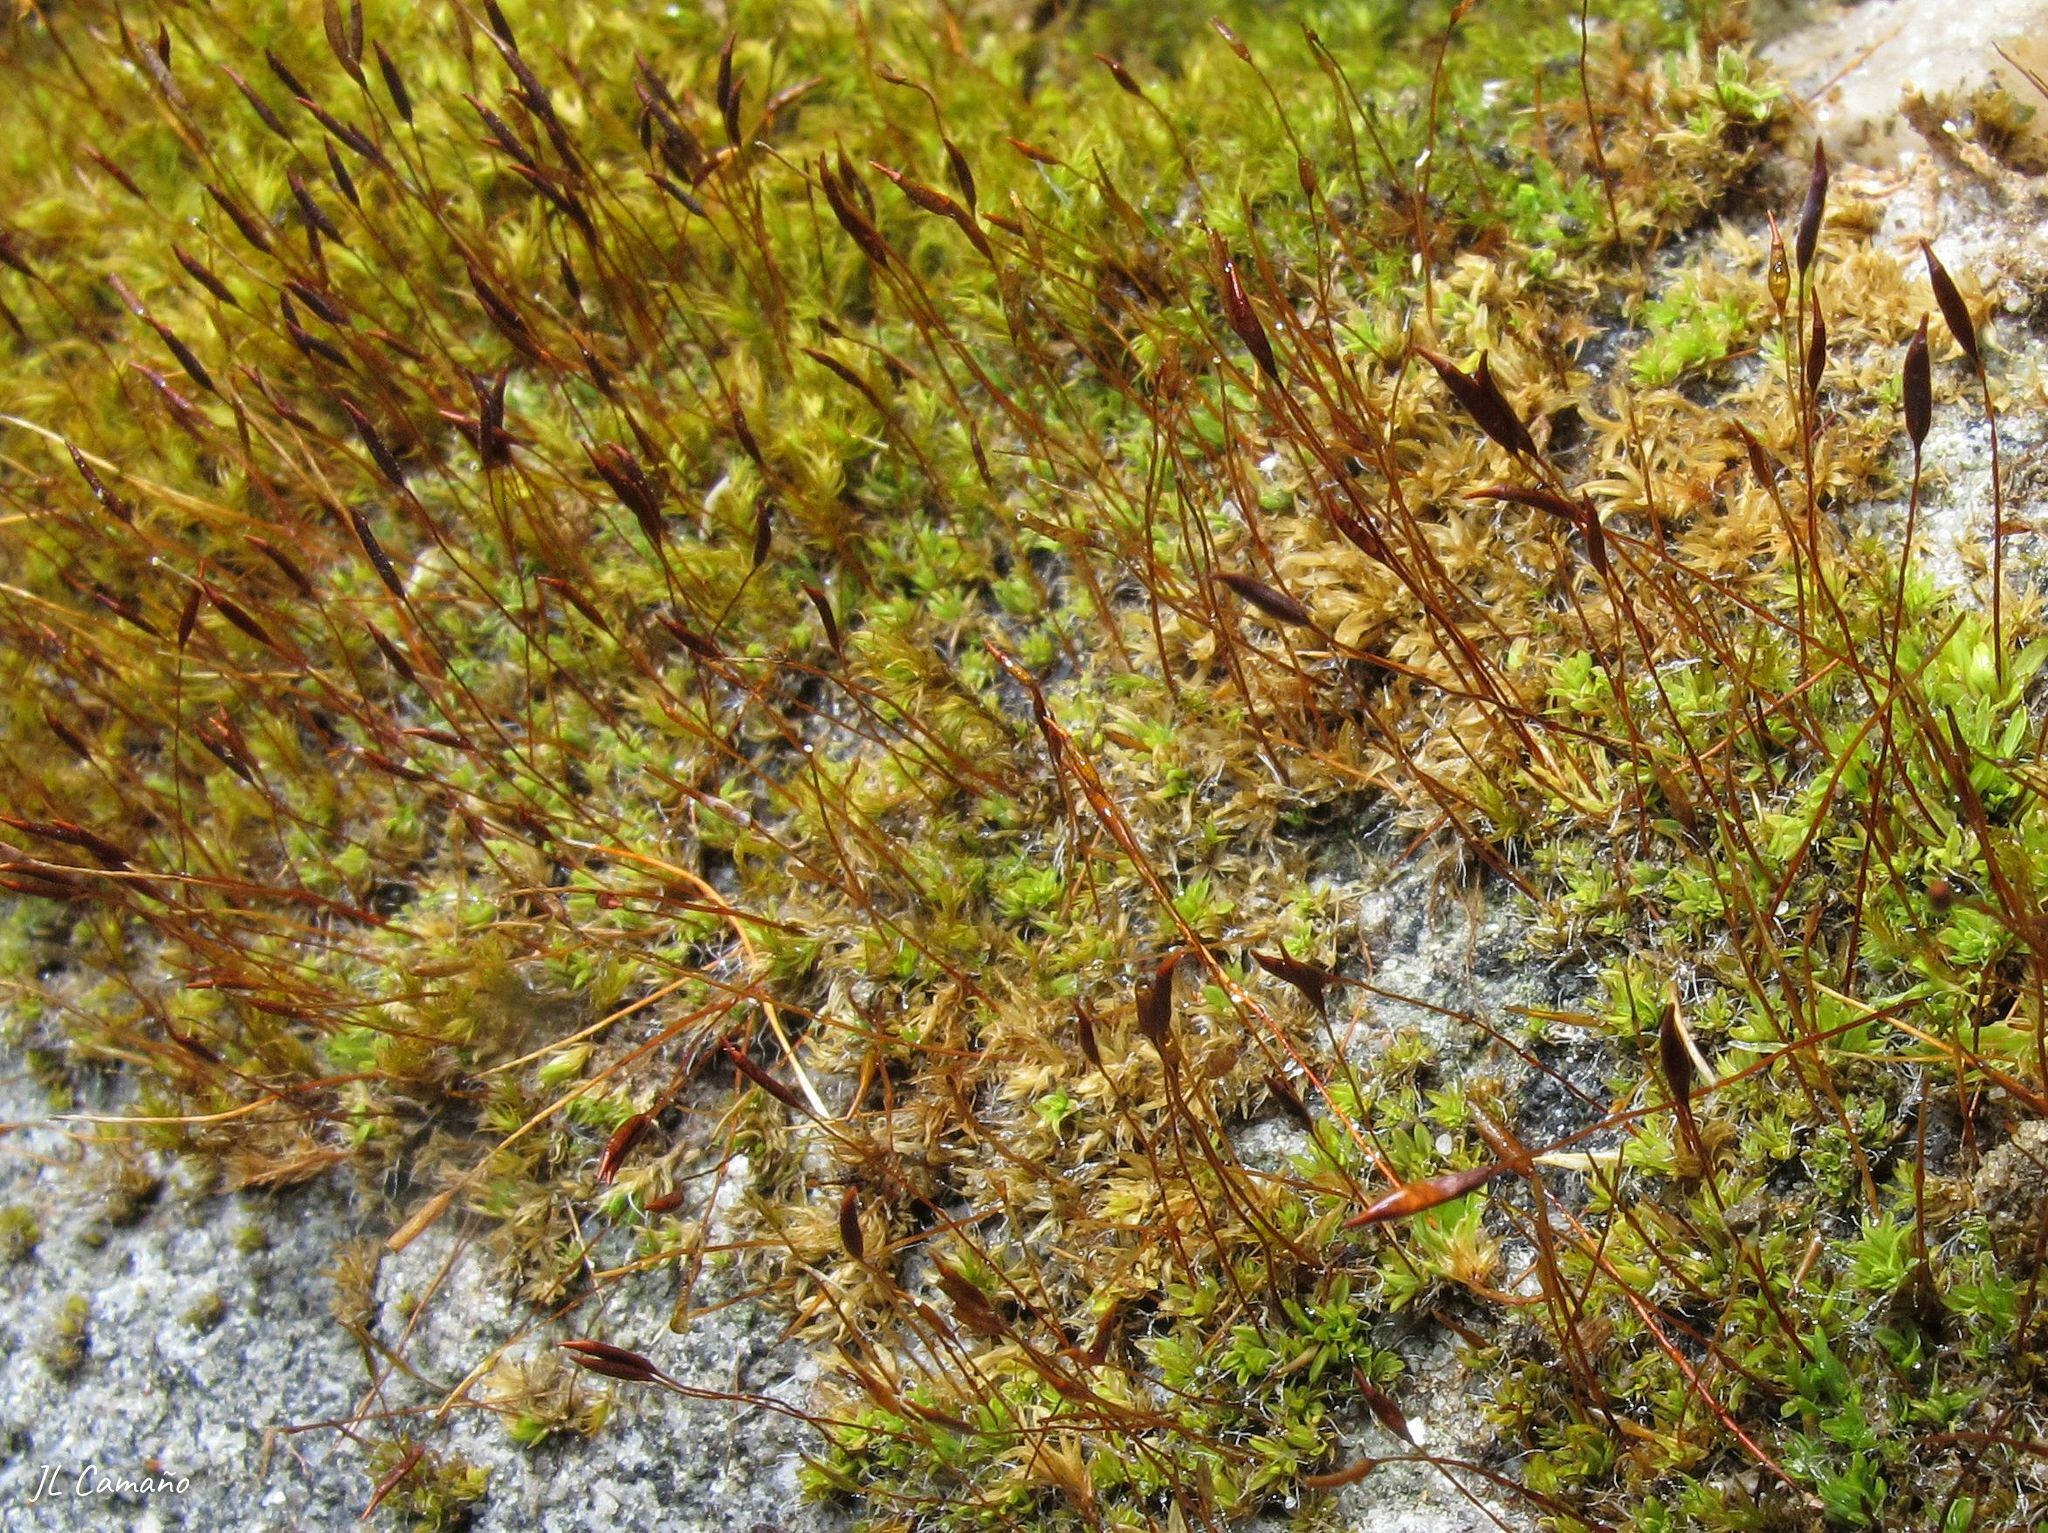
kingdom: Plantae
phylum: Bryophyta
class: Bryopsida
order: Pottiales
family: Pottiaceae
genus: Tortula
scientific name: Tortula muralis
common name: Wall screw-moss
